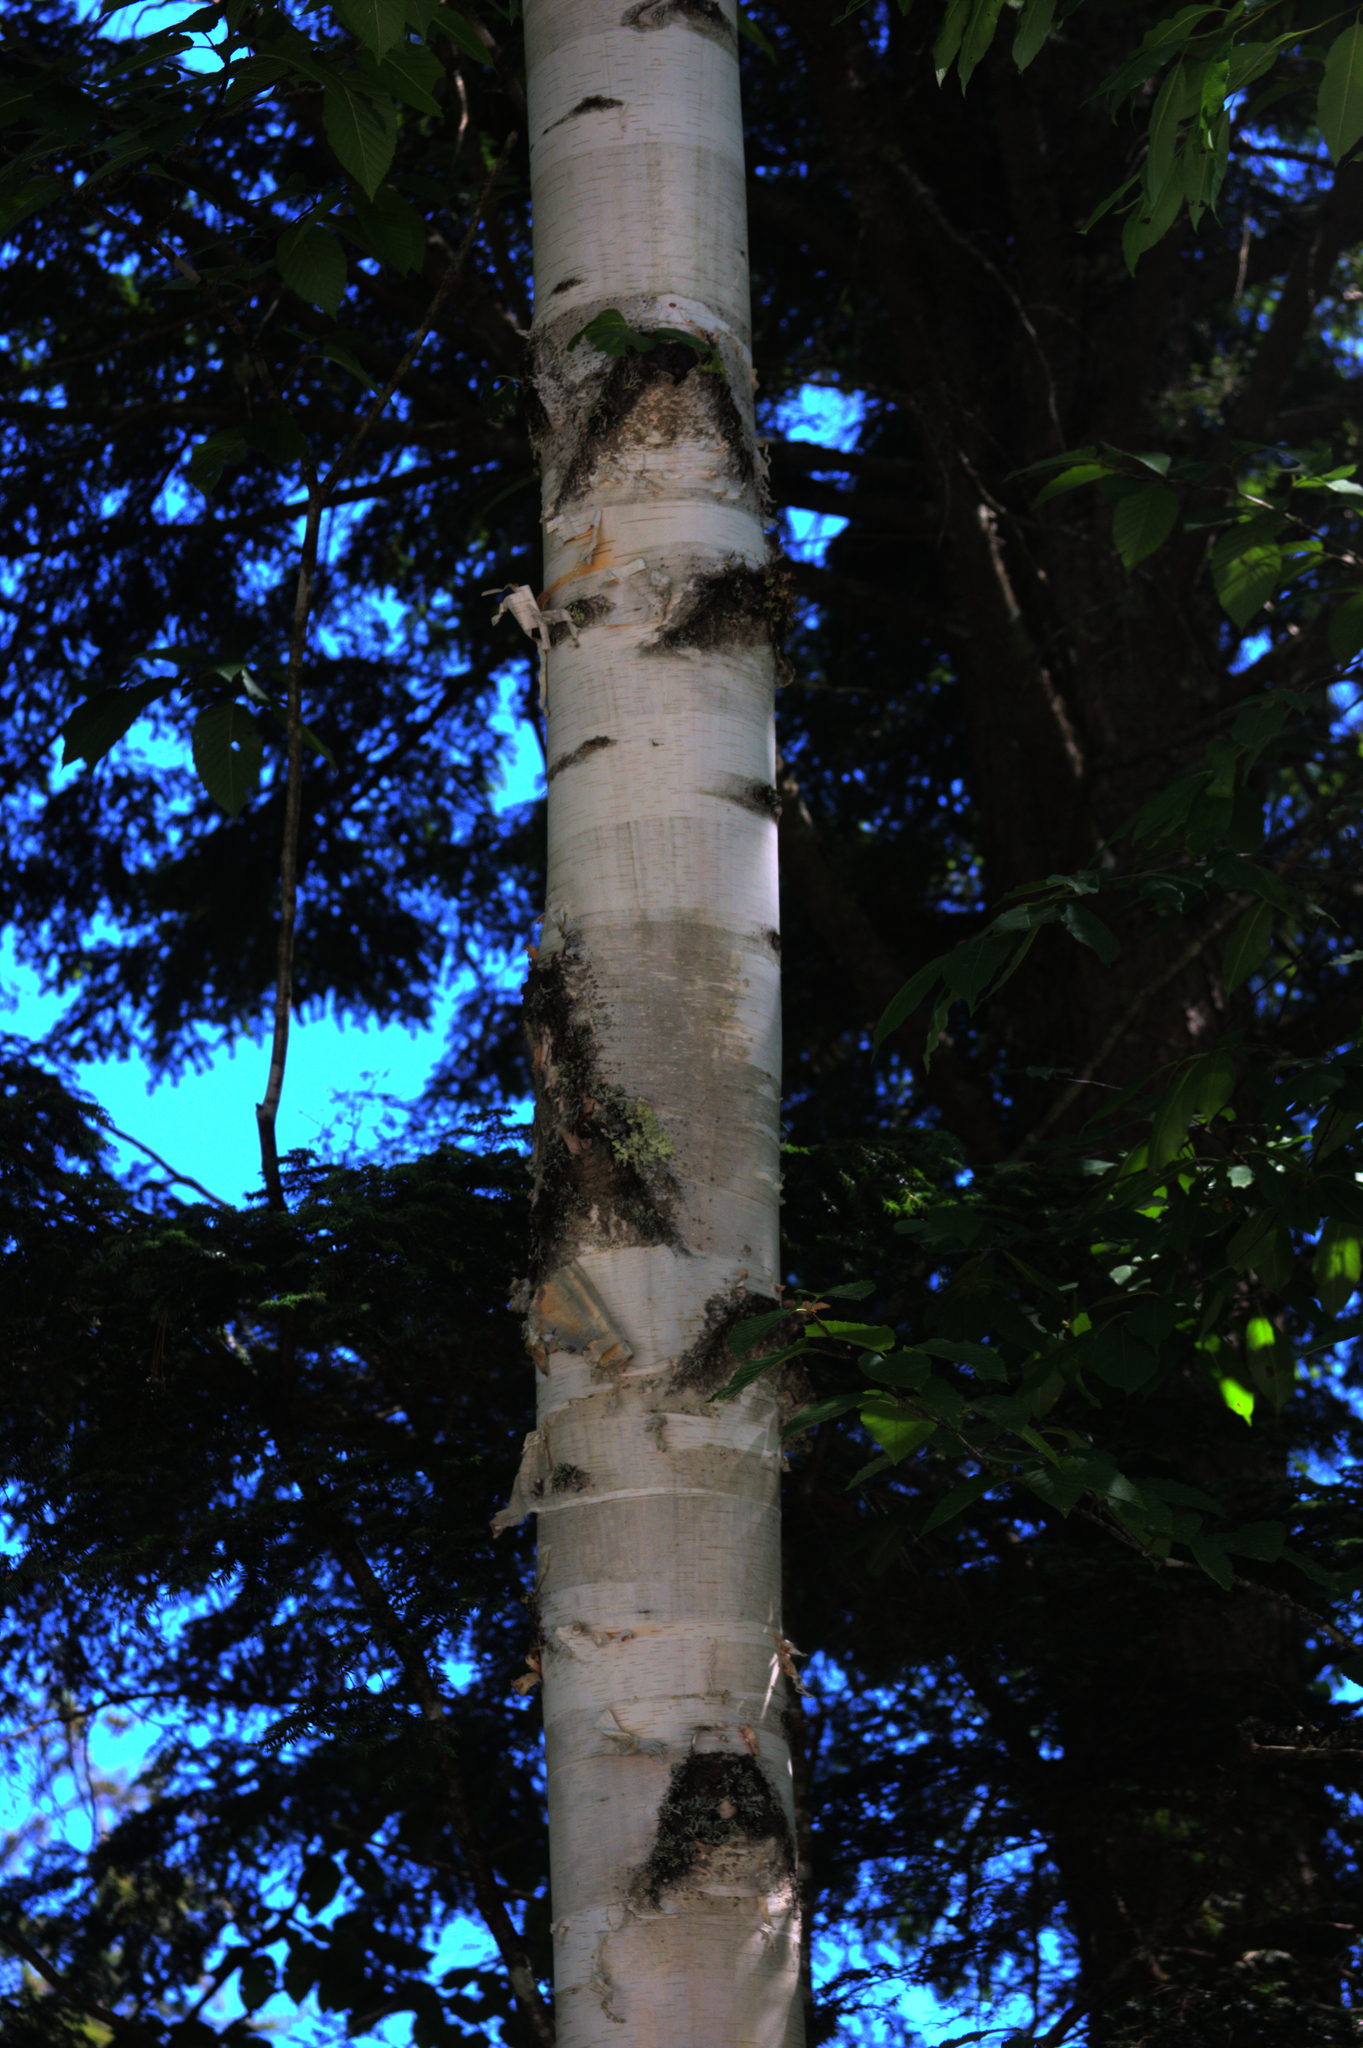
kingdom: Plantae
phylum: Tracheophyta
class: Magnoliopsida
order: Fagales
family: Betulaceae
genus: Betula
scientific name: Betula papyrifera
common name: Paper birch
